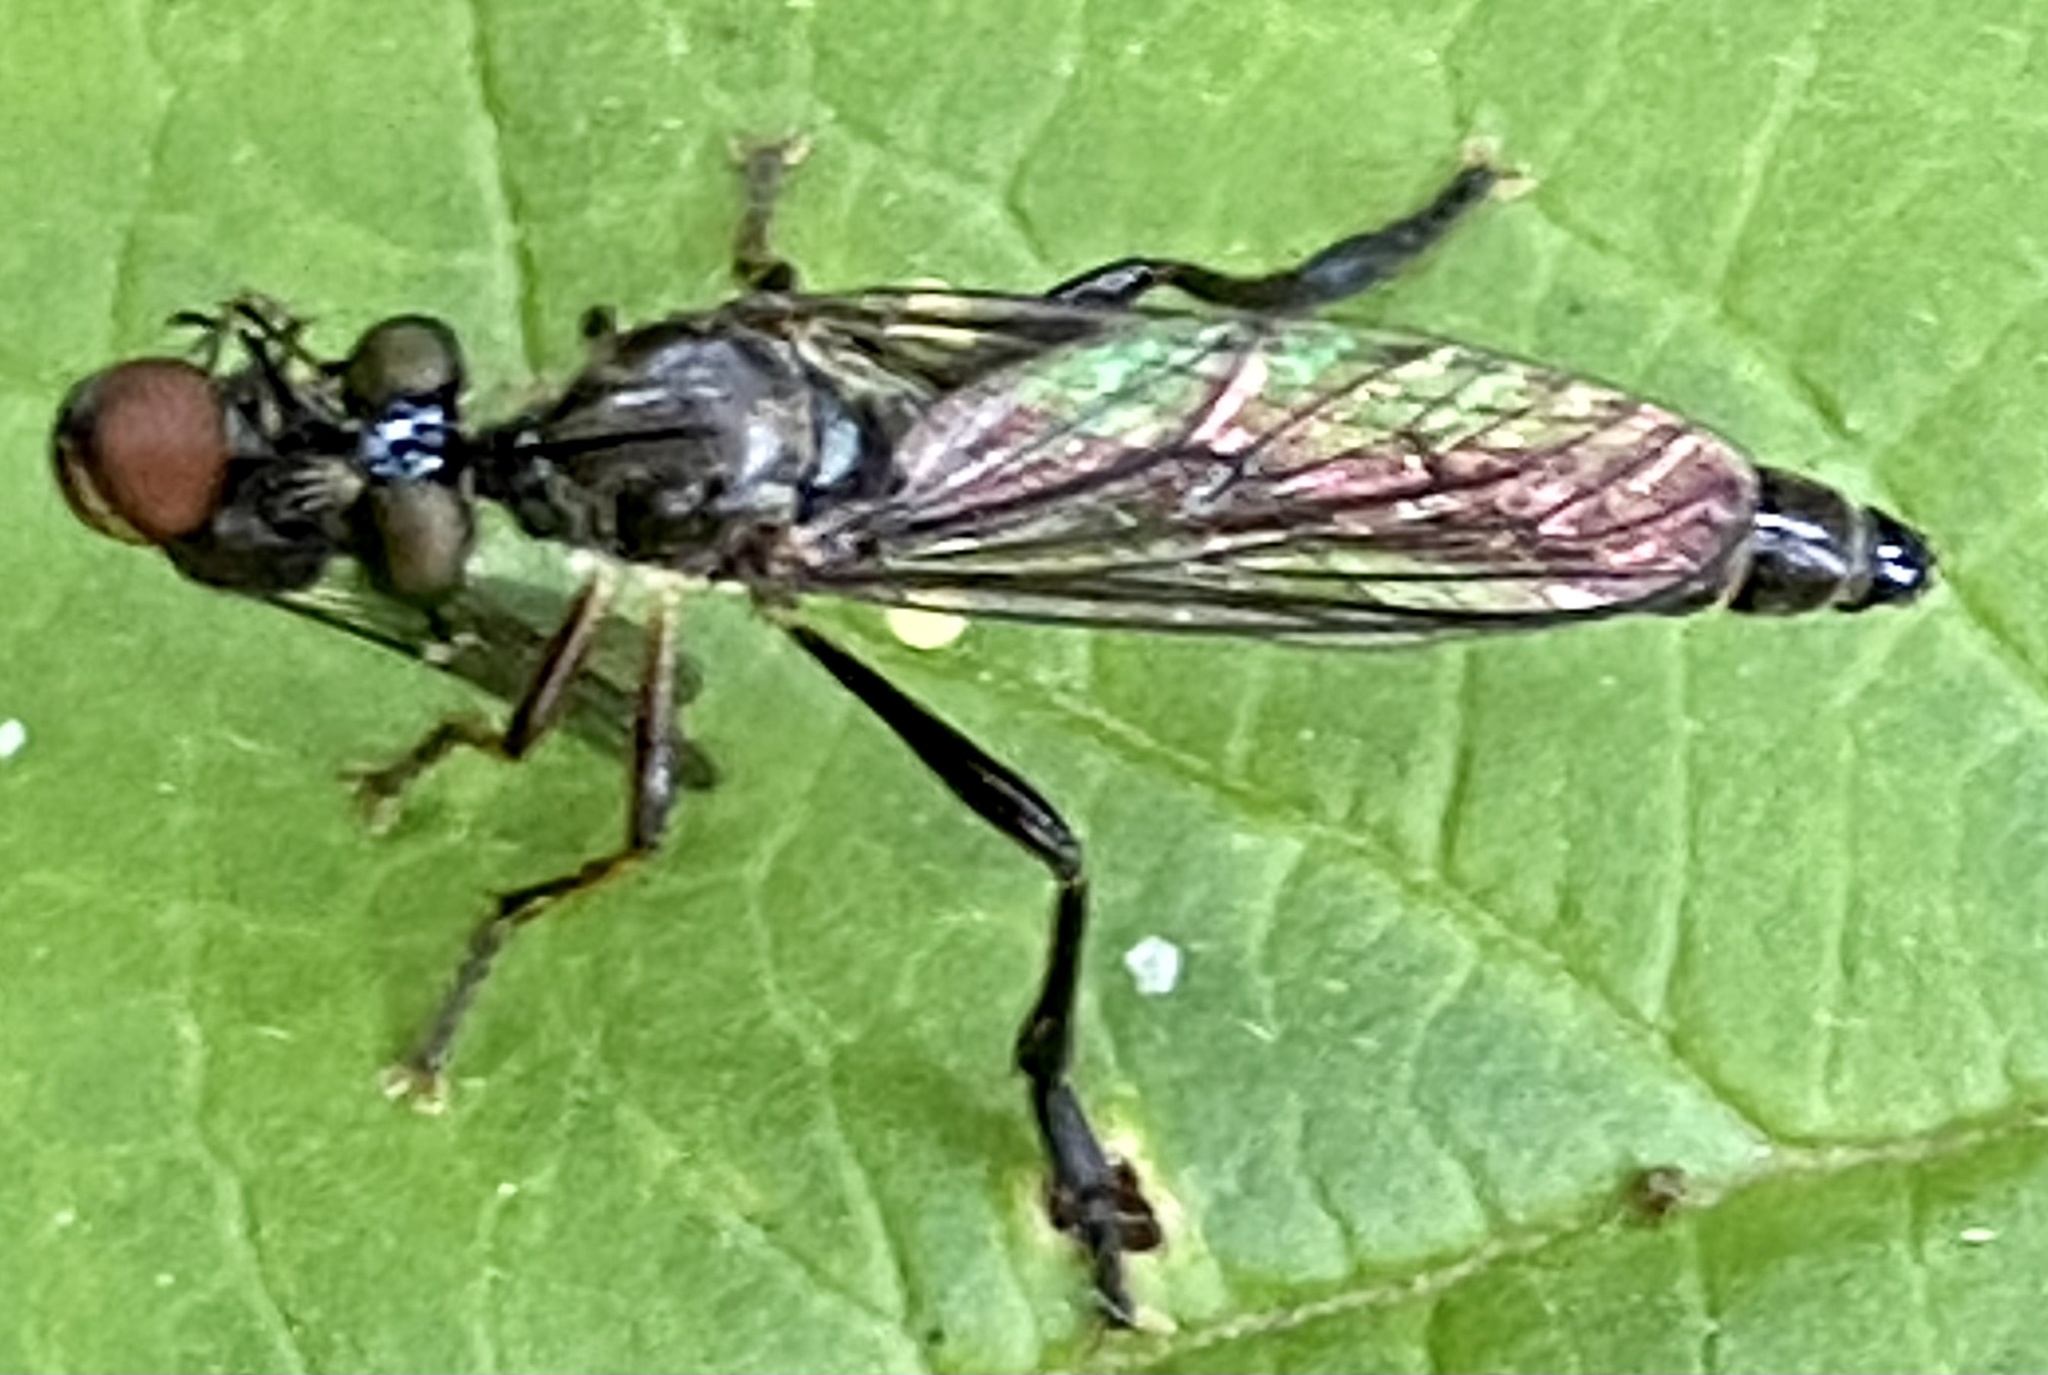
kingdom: Animalia
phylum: Arthropoda
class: Insecta
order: Diptera
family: Asilidae
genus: Dioctria
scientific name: Dioctria hyalipennis
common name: Stripe-legged robberfly
